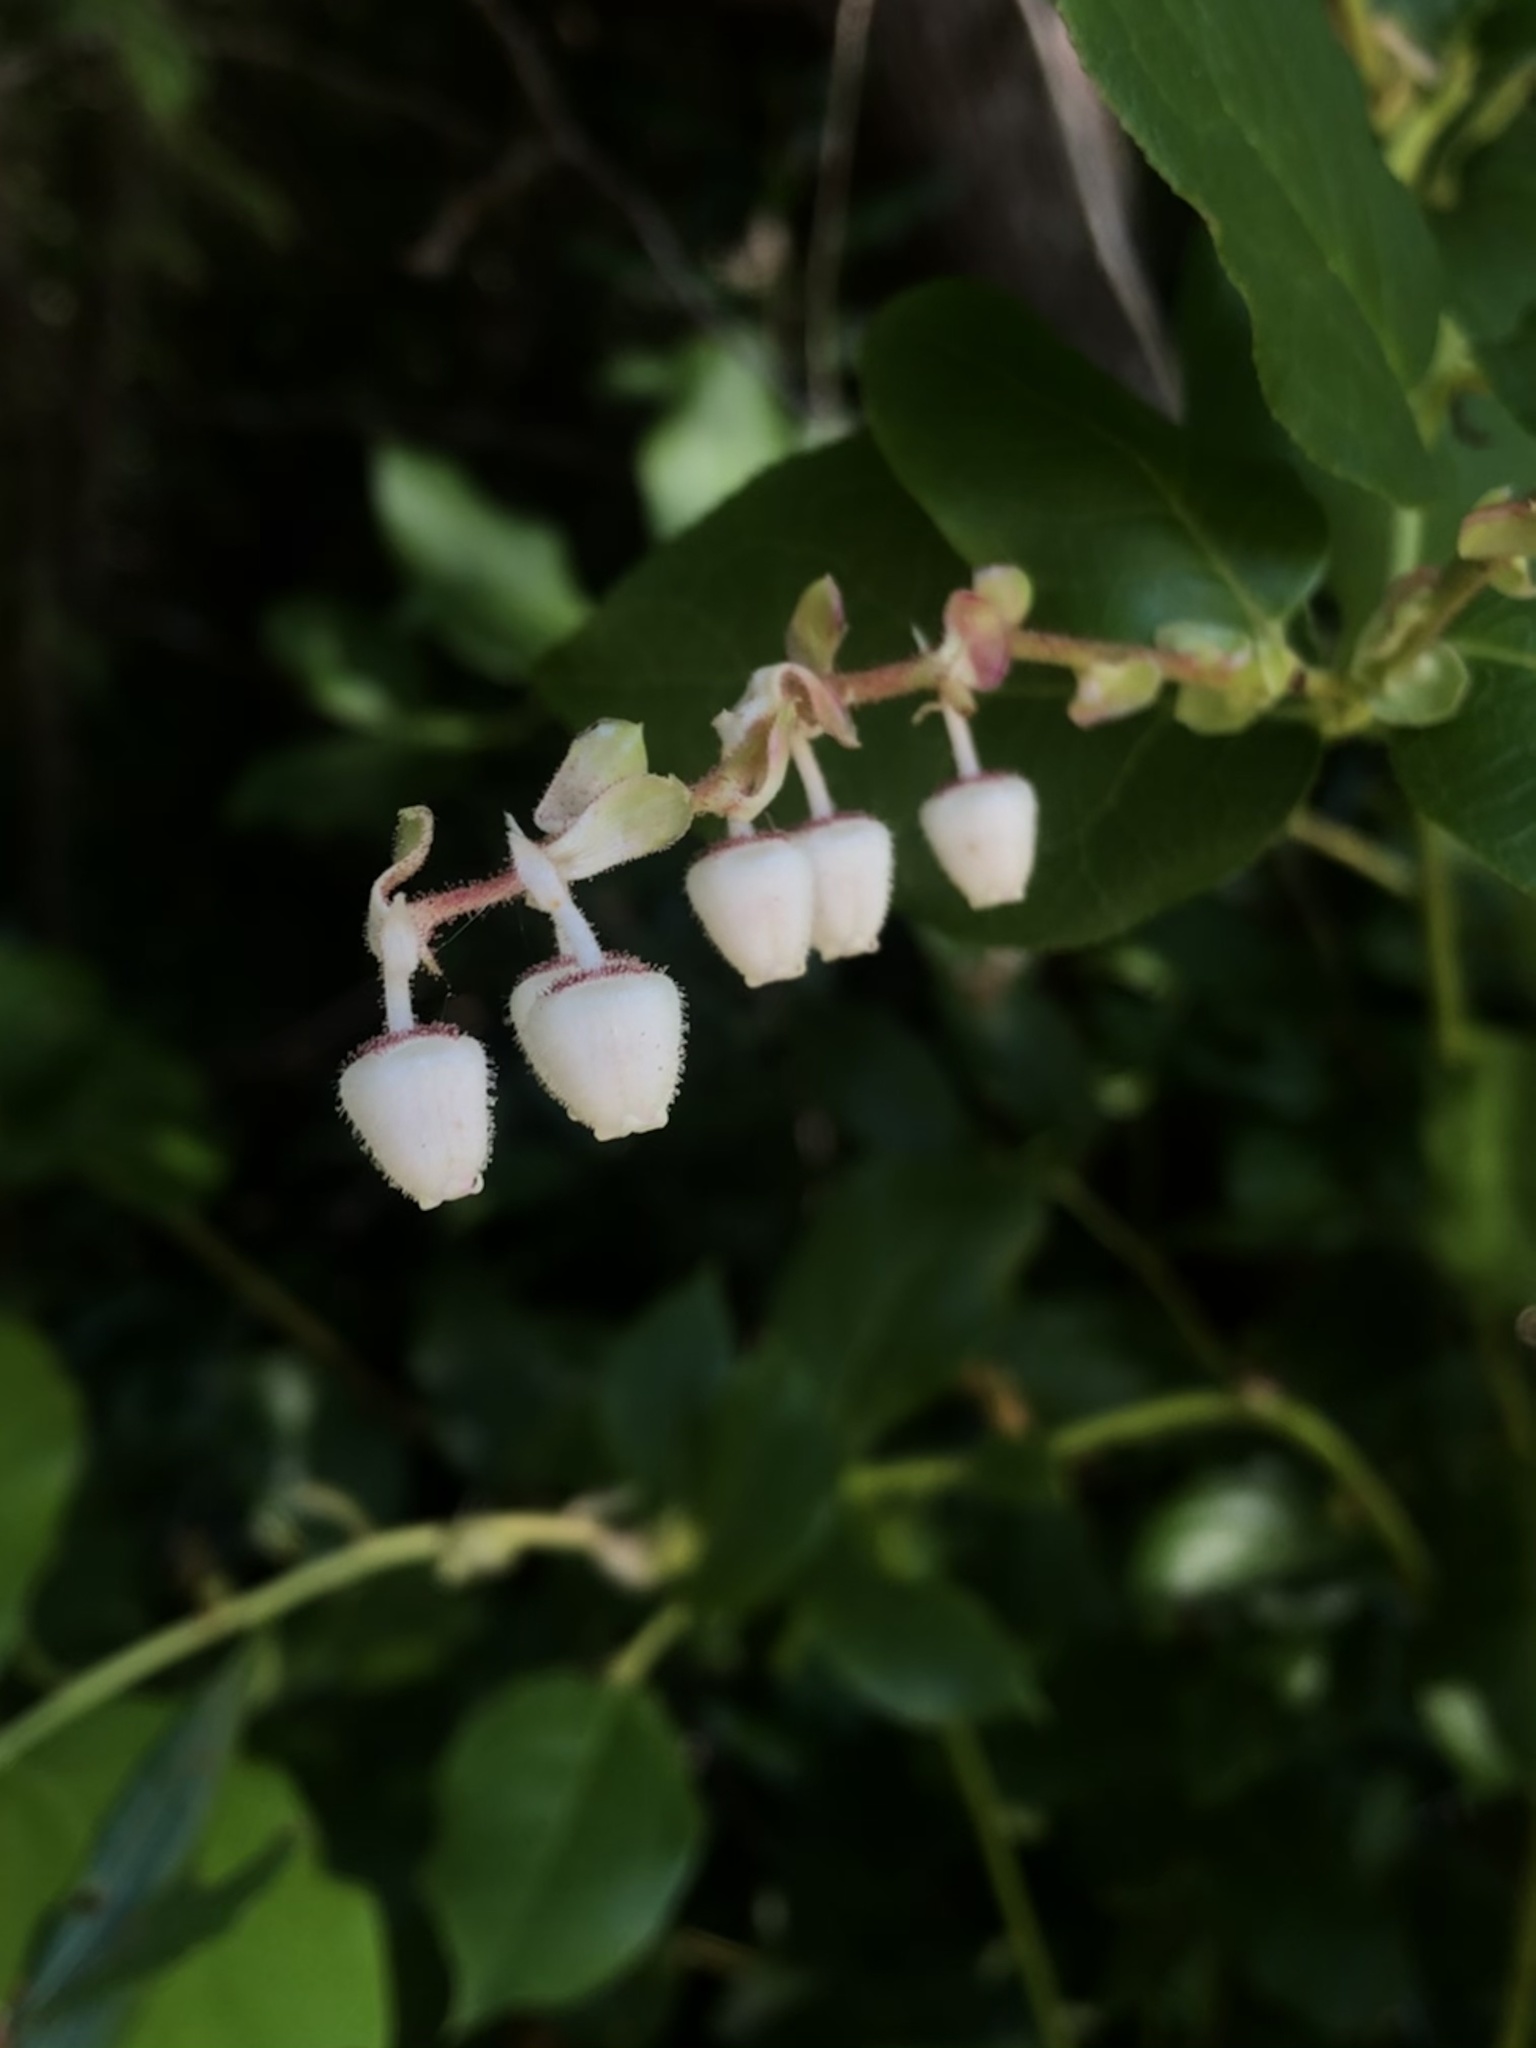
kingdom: Plantae
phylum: Tracheophyta
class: Magnoliopsida
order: Ericales
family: Ericaceae
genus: Gaultheria
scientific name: Gaultheria shallon
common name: Shallon
